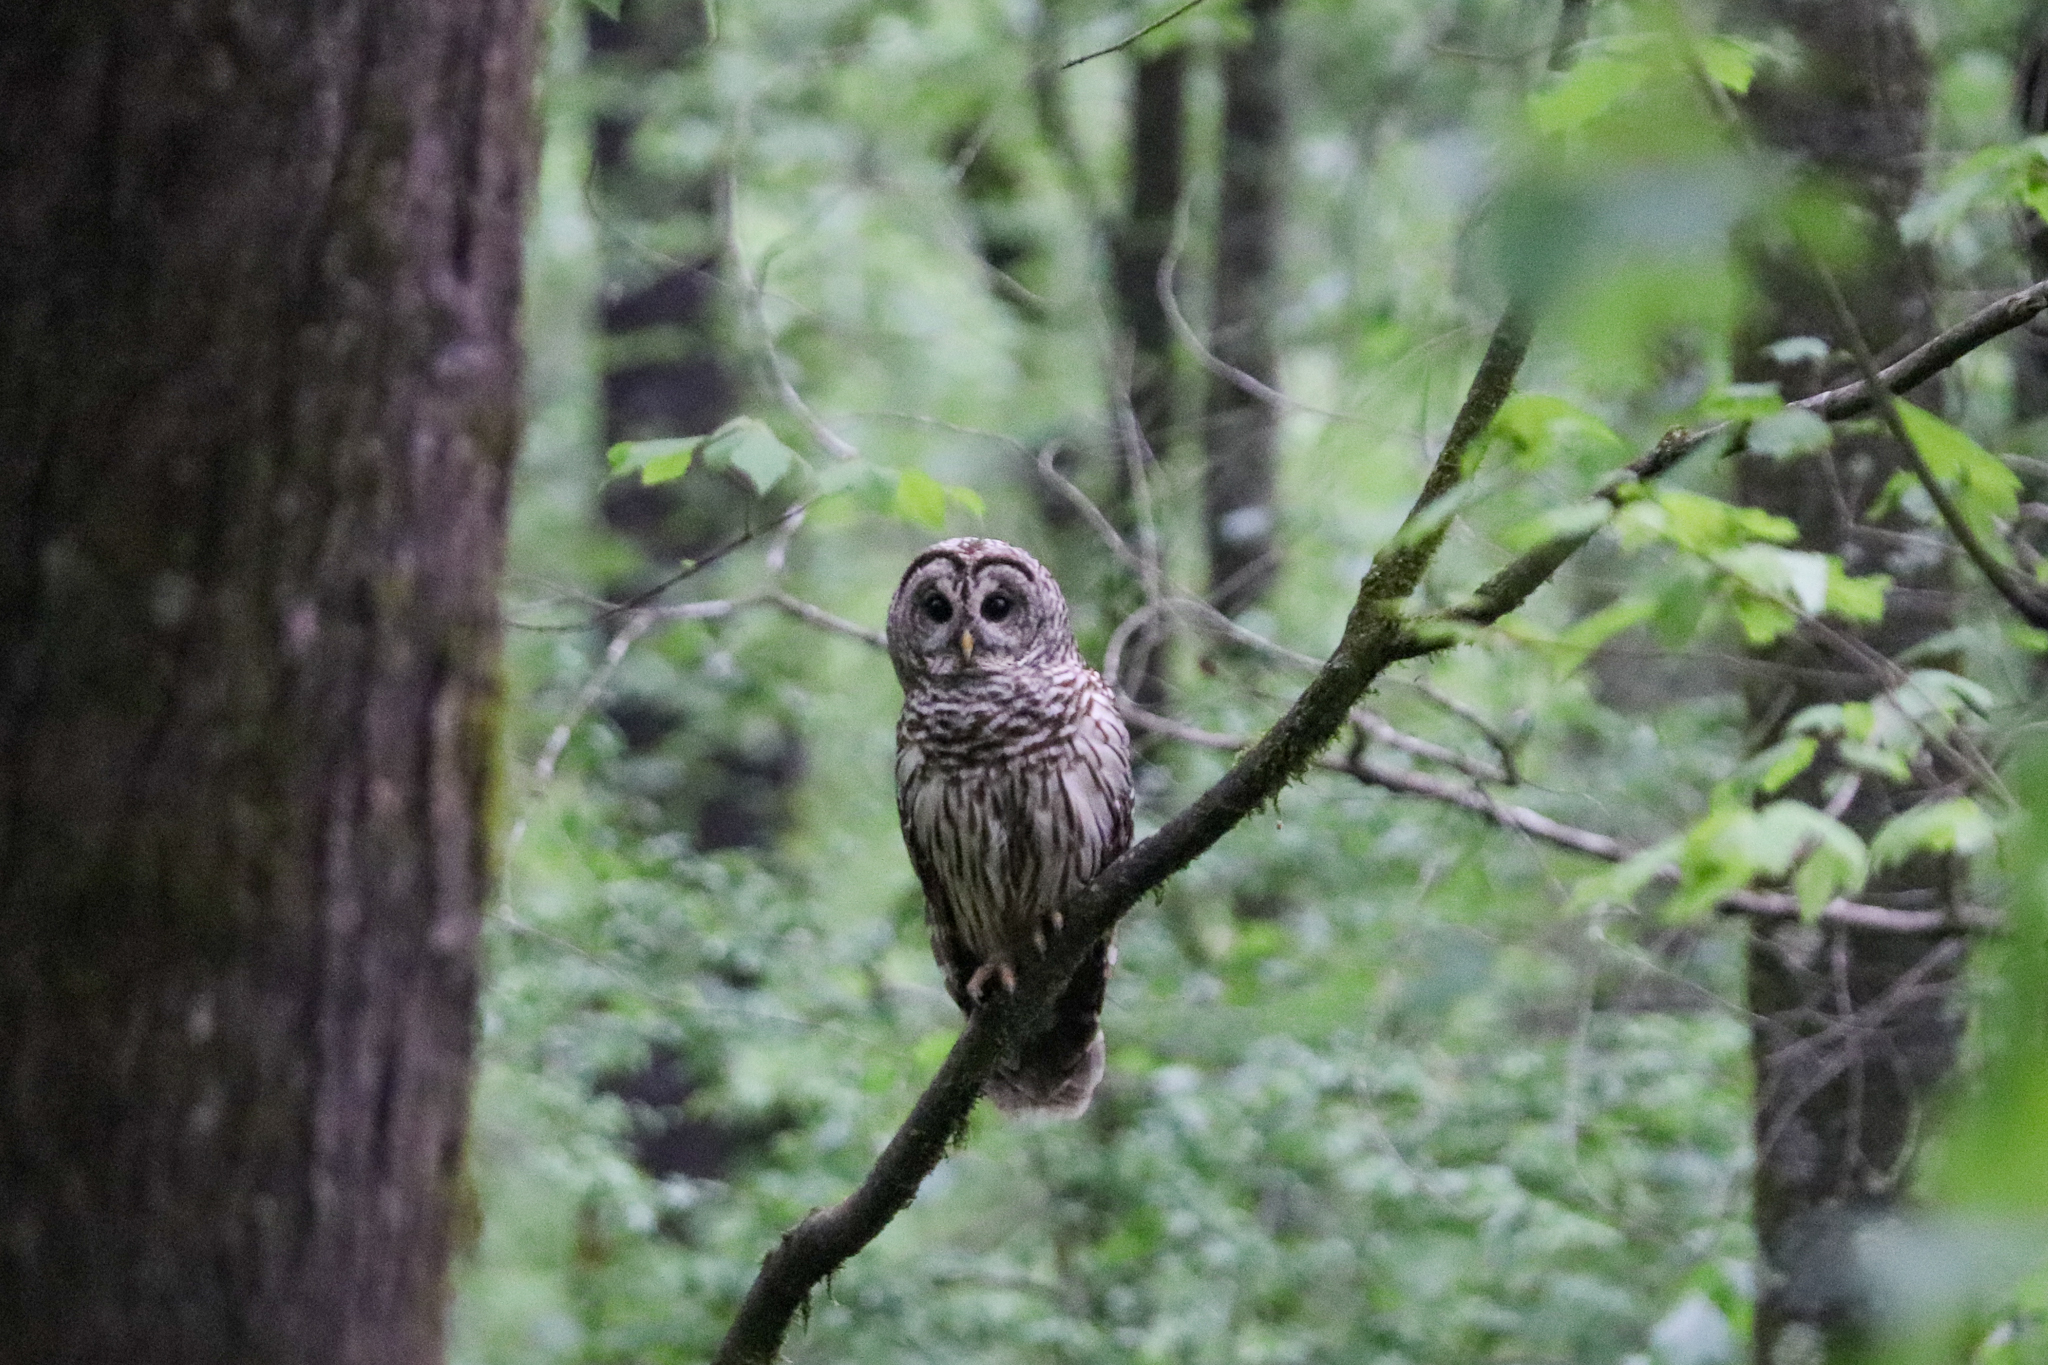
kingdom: Animalia
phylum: Chordata
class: Aves
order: Strigiformes
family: Strigidae
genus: Strix
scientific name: Strix varia
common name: Barred owl
